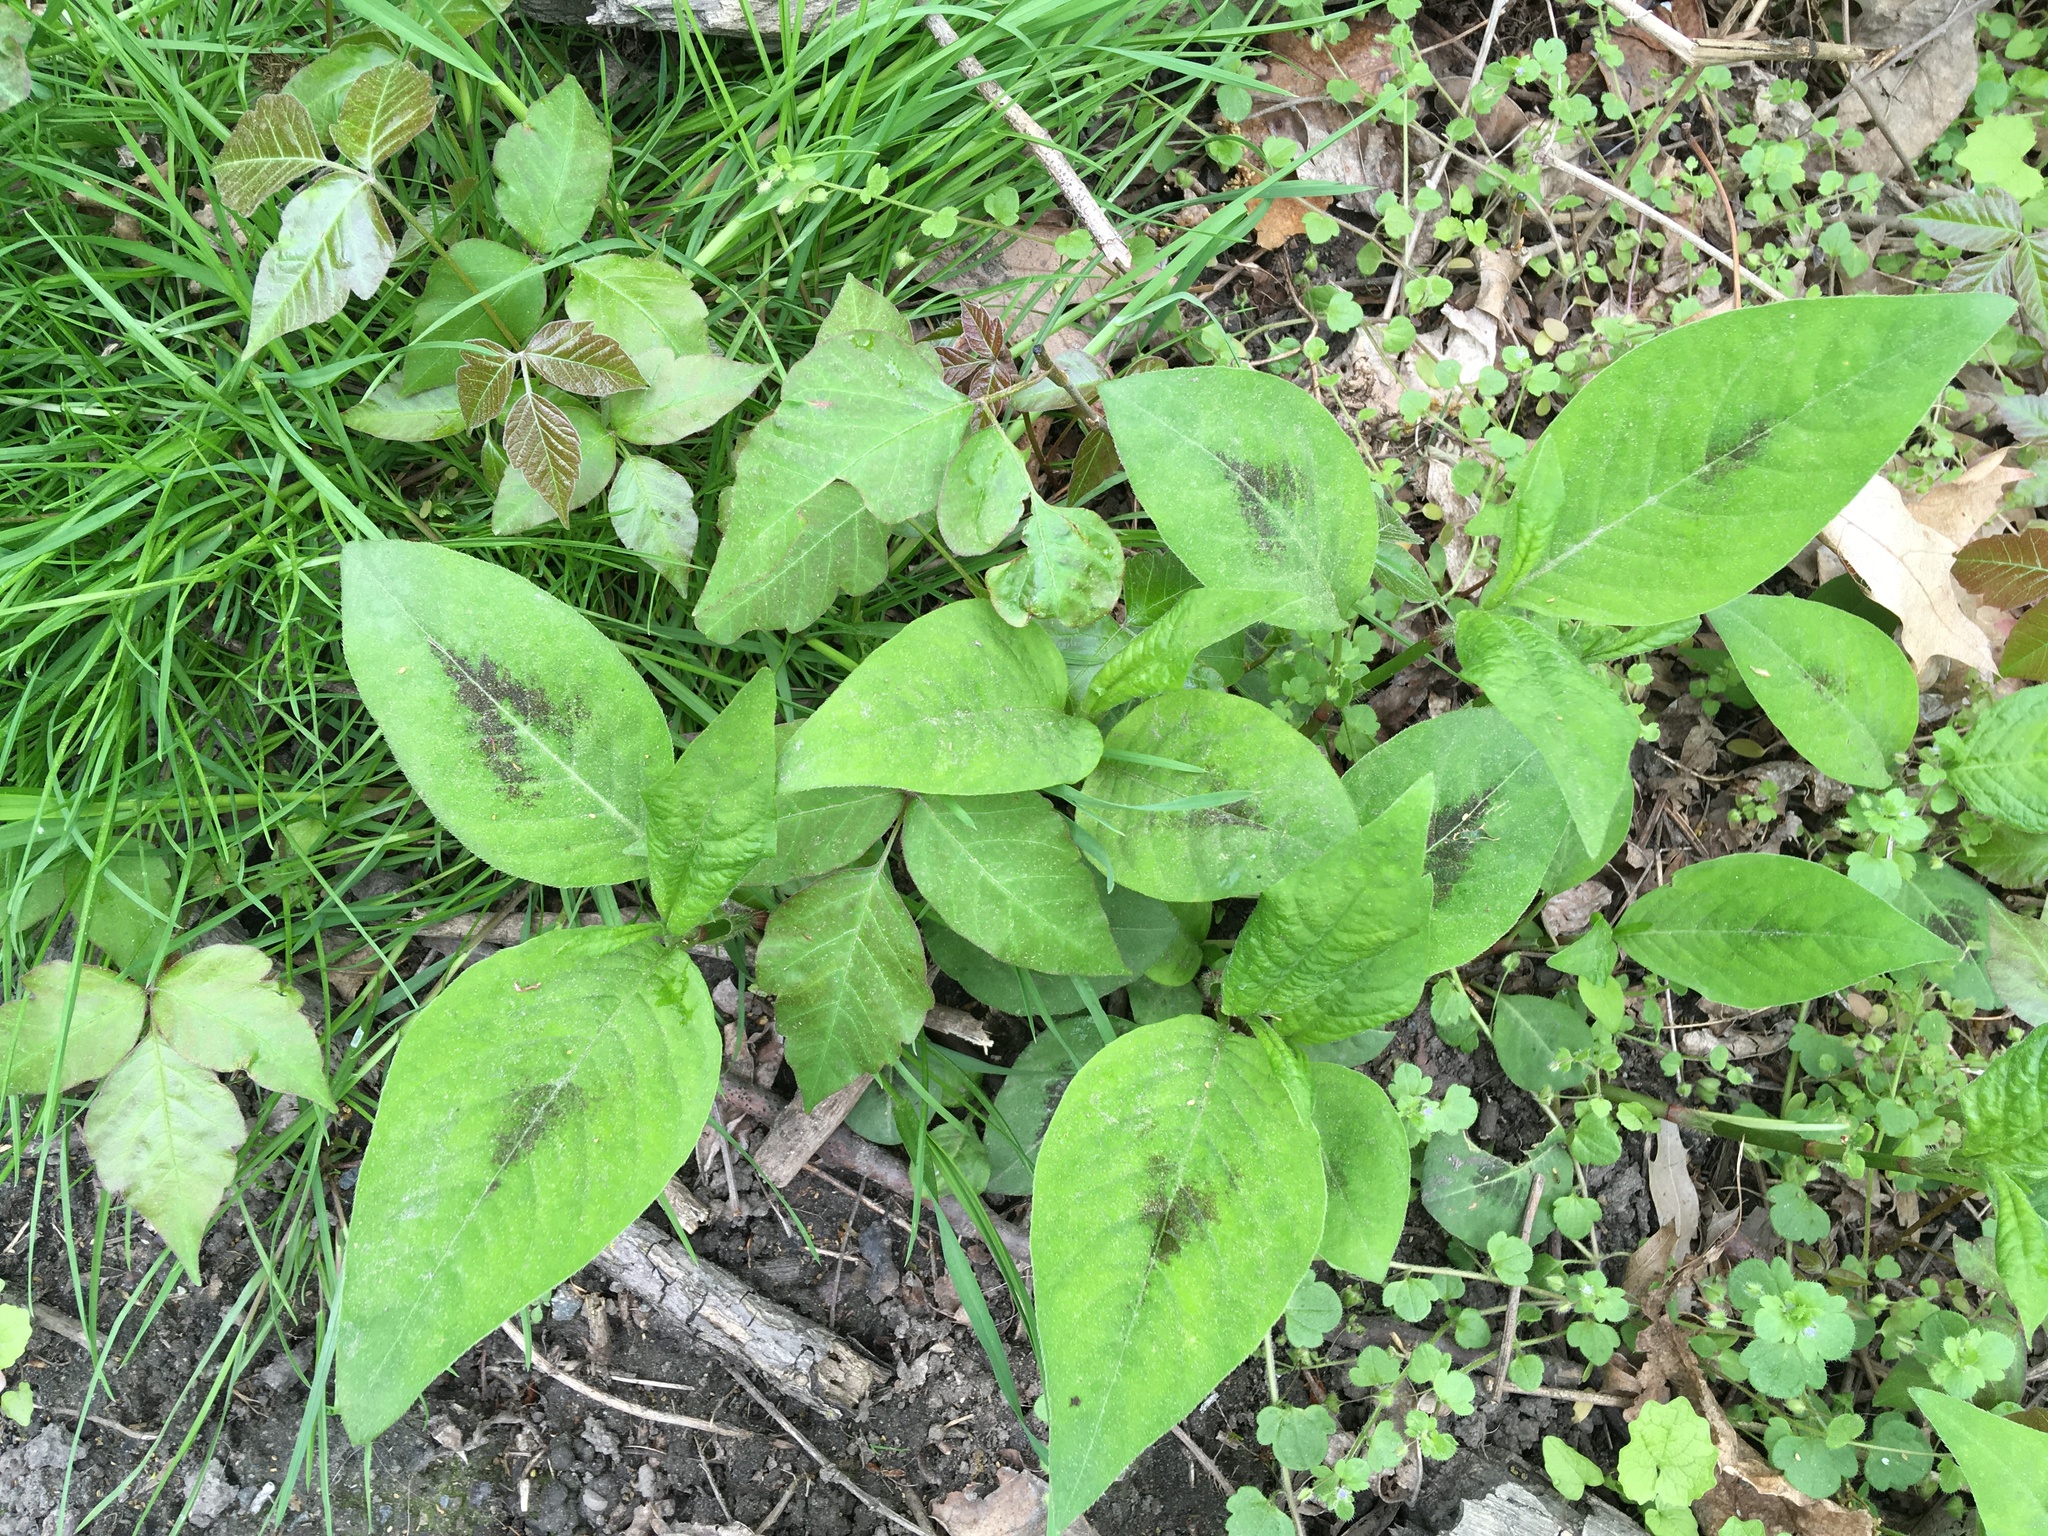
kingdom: Plantae
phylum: Tracheophyta
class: Magnoliopsida
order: Caryophyllales
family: Polygonaceae
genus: Persicaria
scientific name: Persicaria virginiana
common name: Jumpseed
